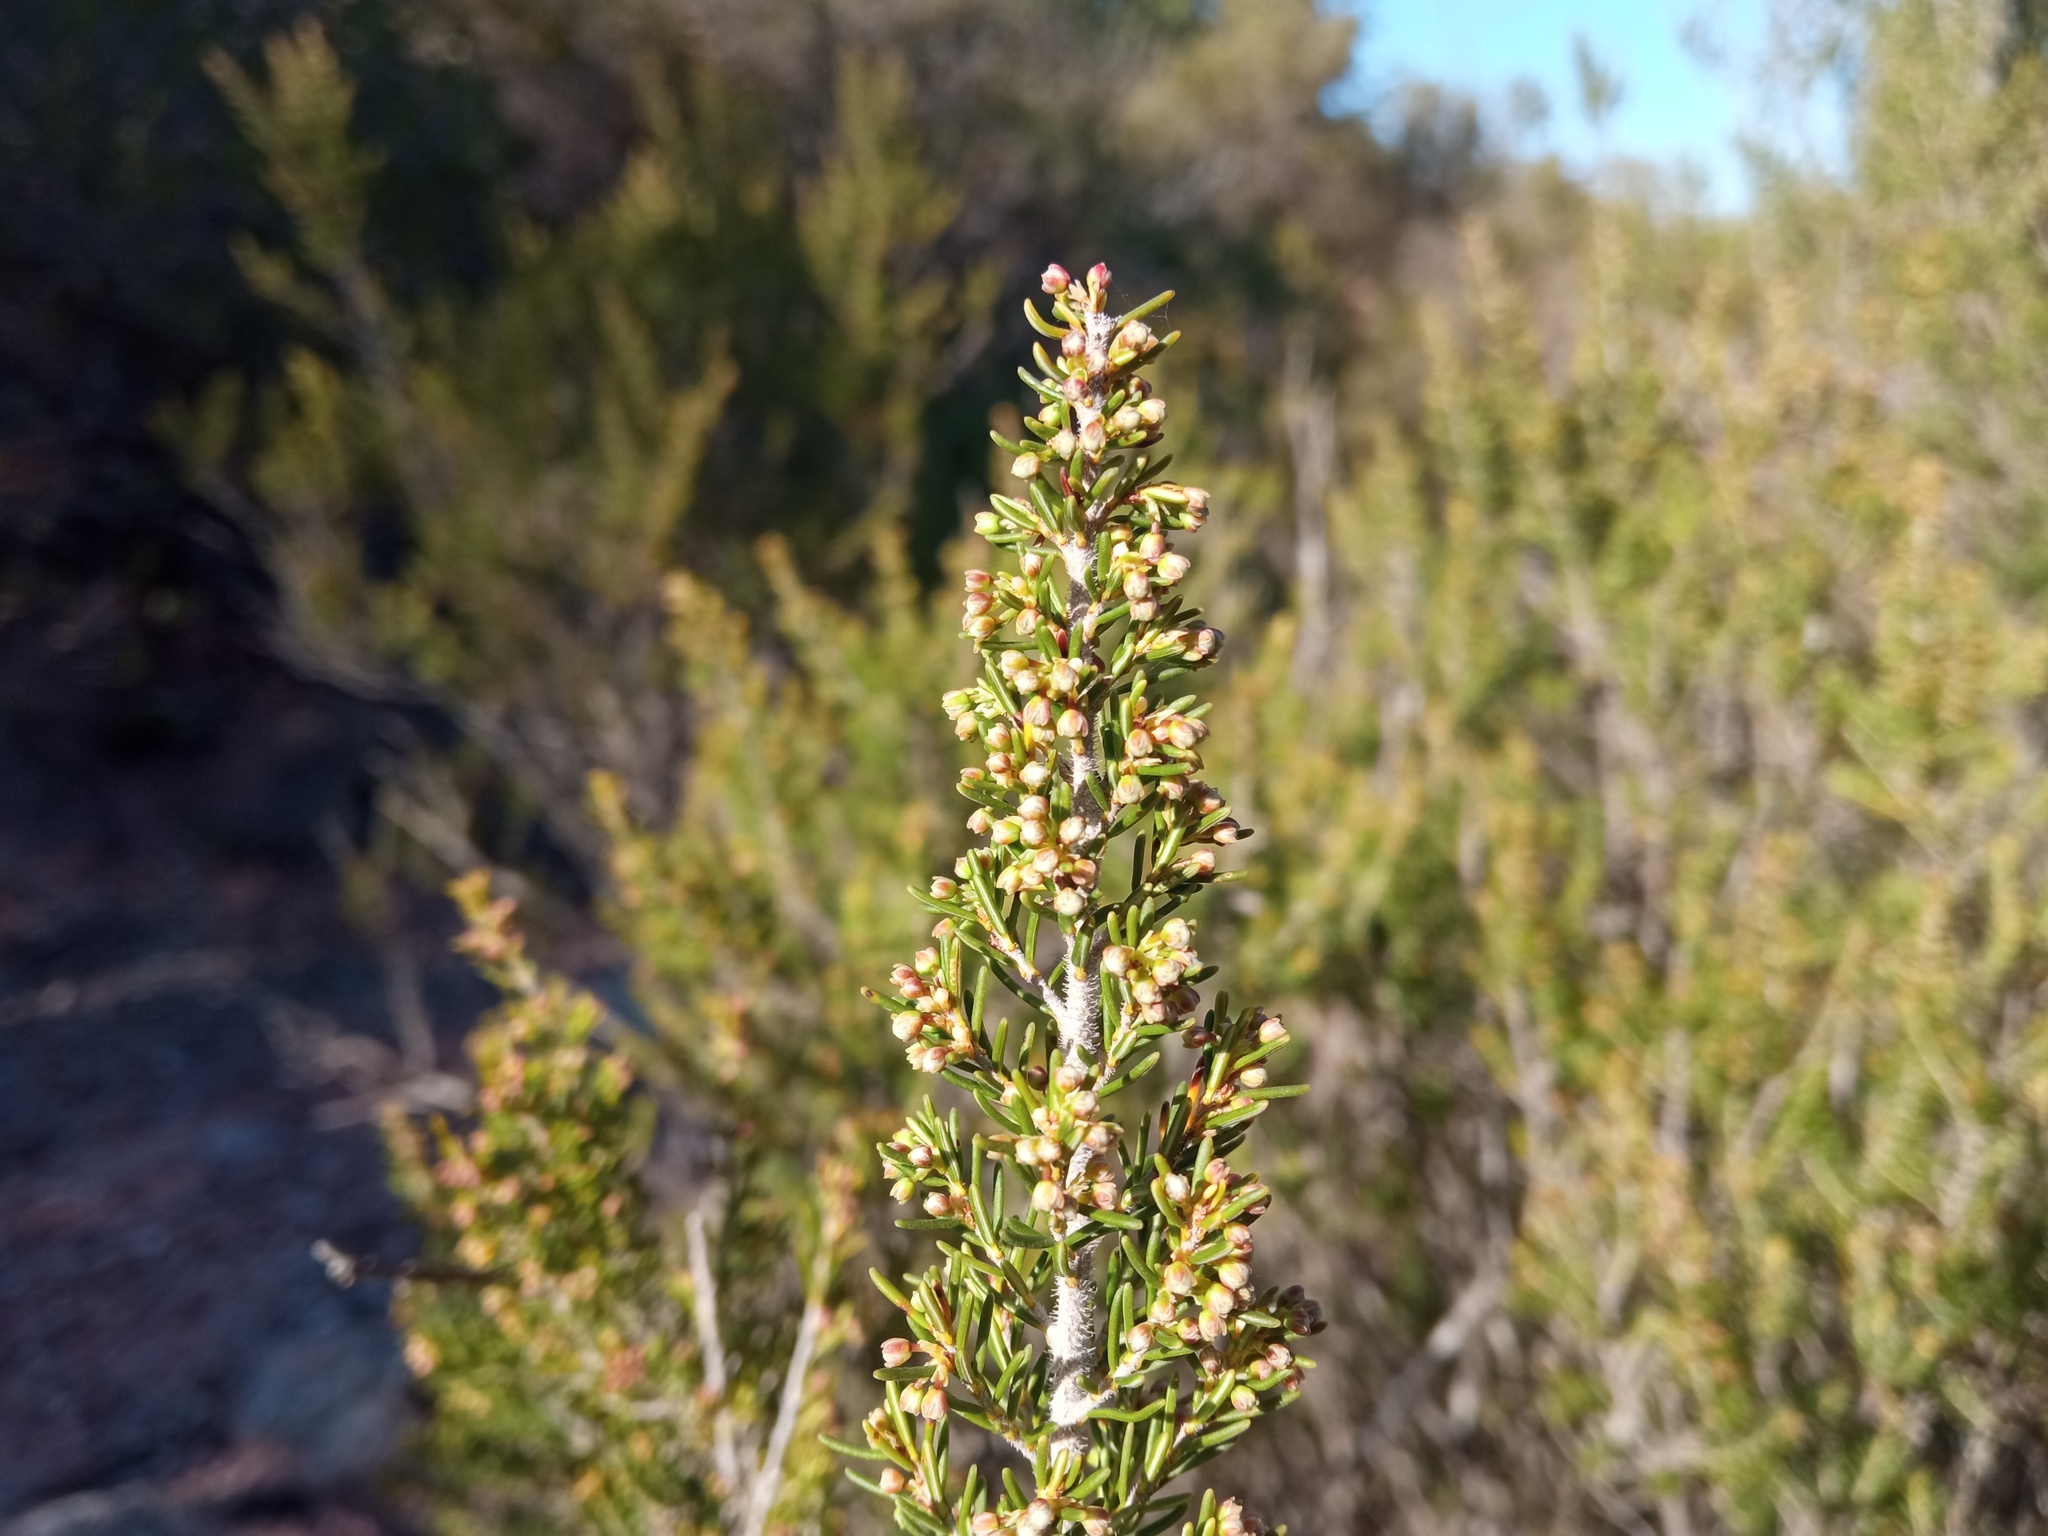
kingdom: Plantae
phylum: Tracheophyta
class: Magnoliopsida
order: Ericales
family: Ericaceae
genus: Erica
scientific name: Erica arborea
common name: Tree heath
